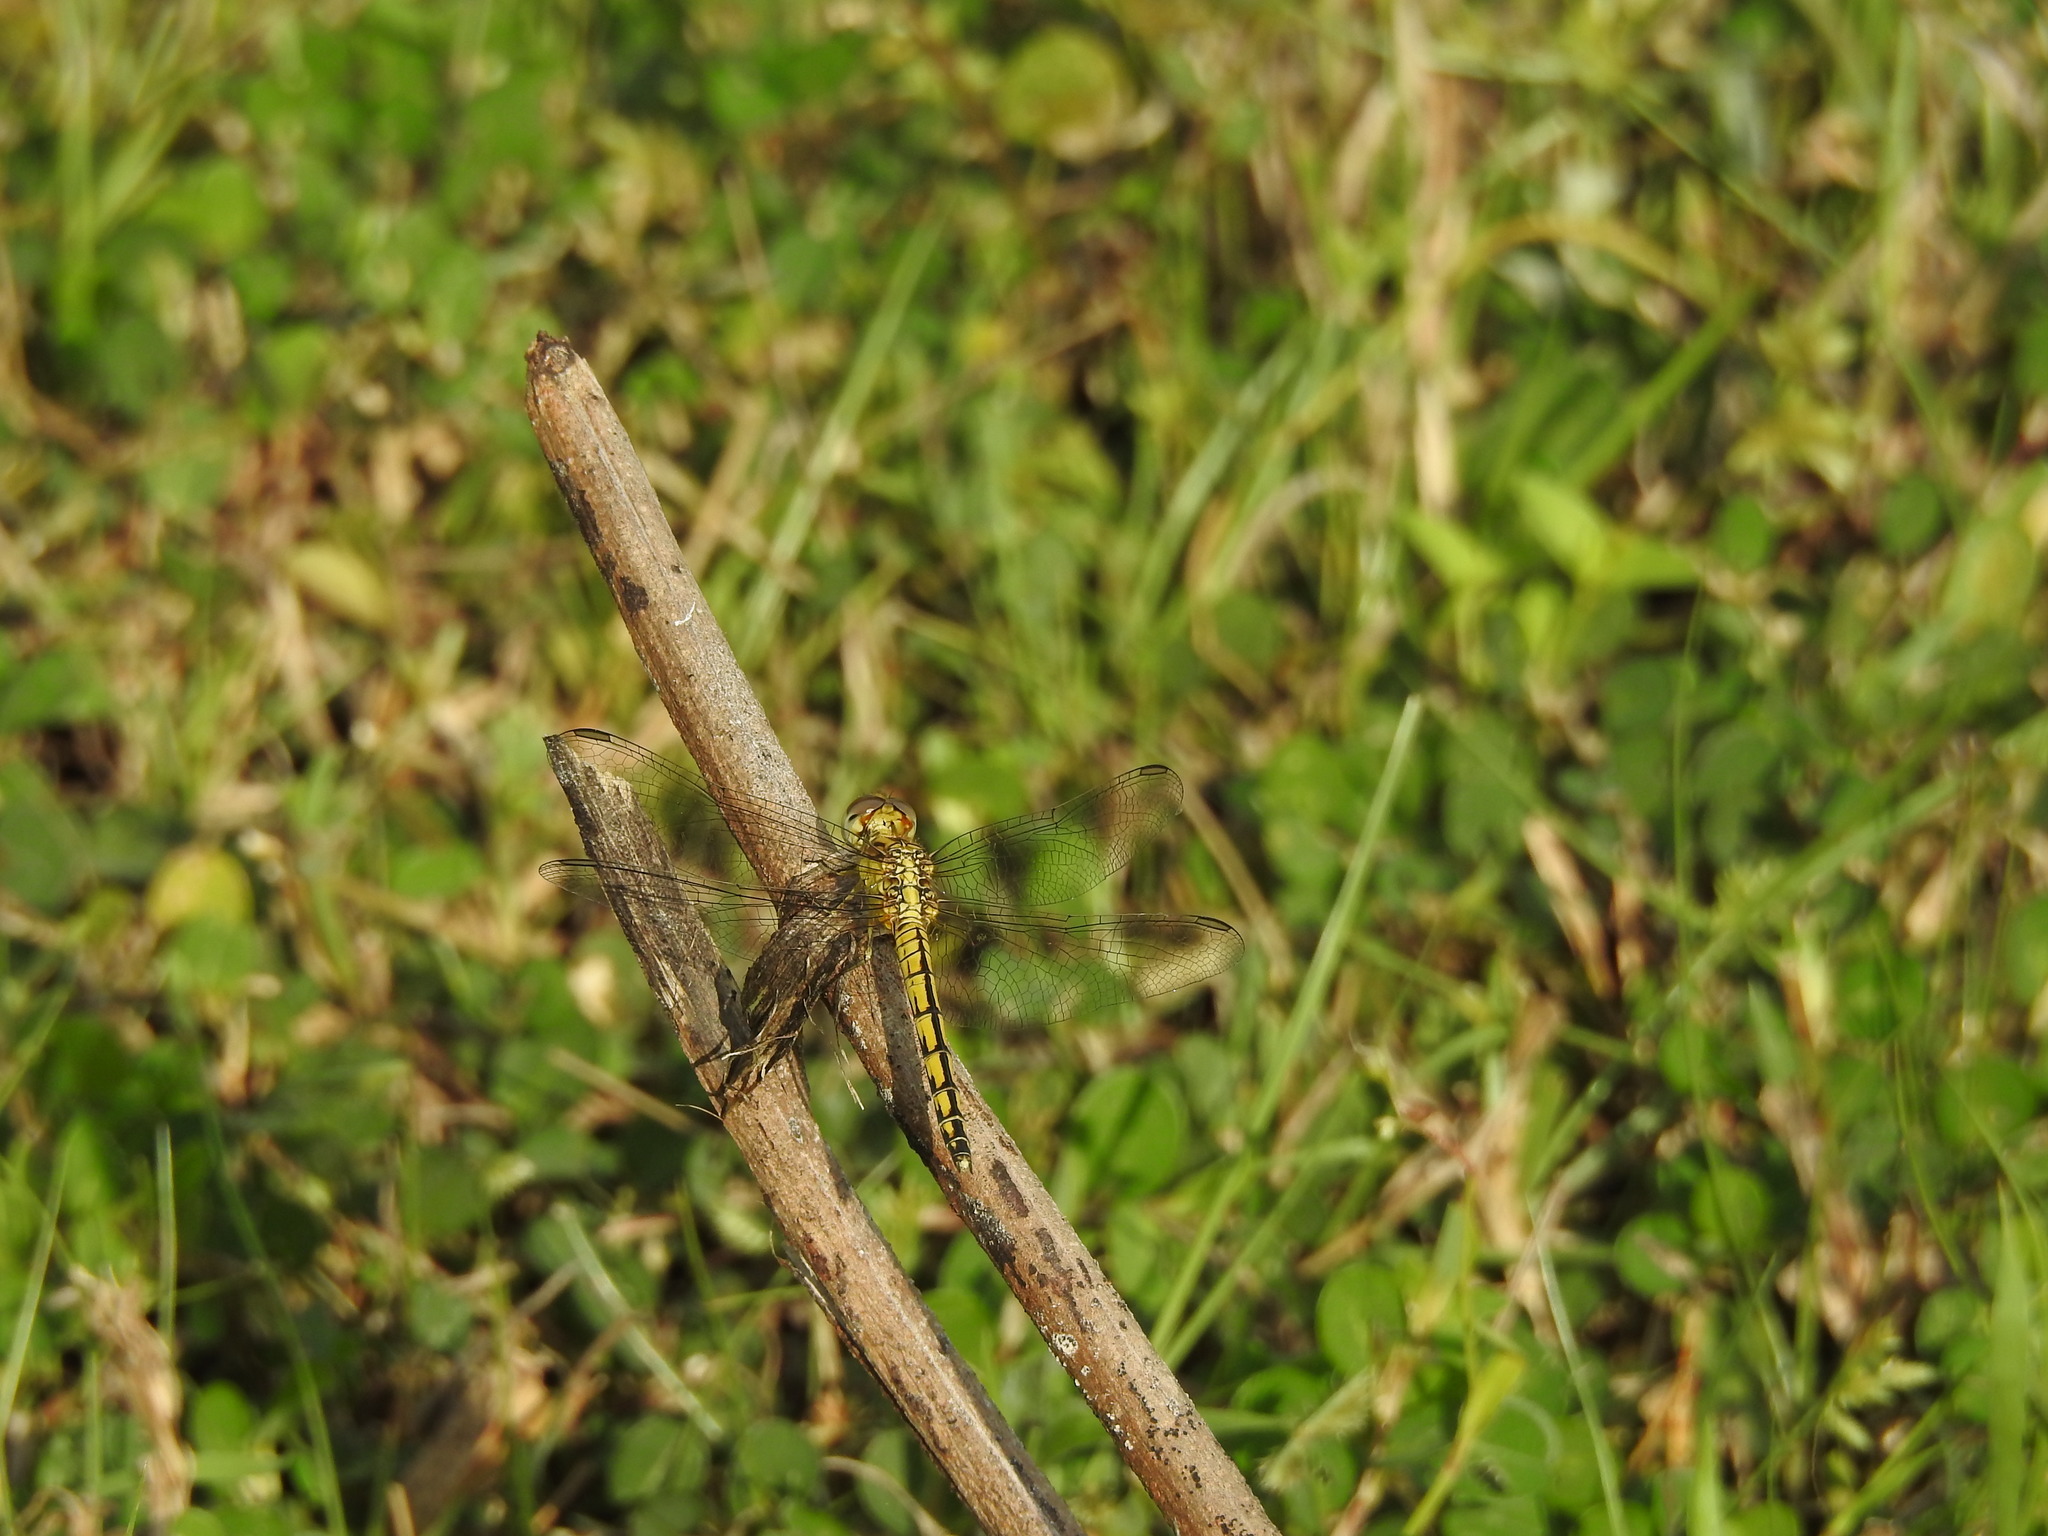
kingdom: Animalia
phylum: Arthropoda
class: Insecta
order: Odonata
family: Libellulidae
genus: Indothemis
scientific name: Indothemis carnatica
